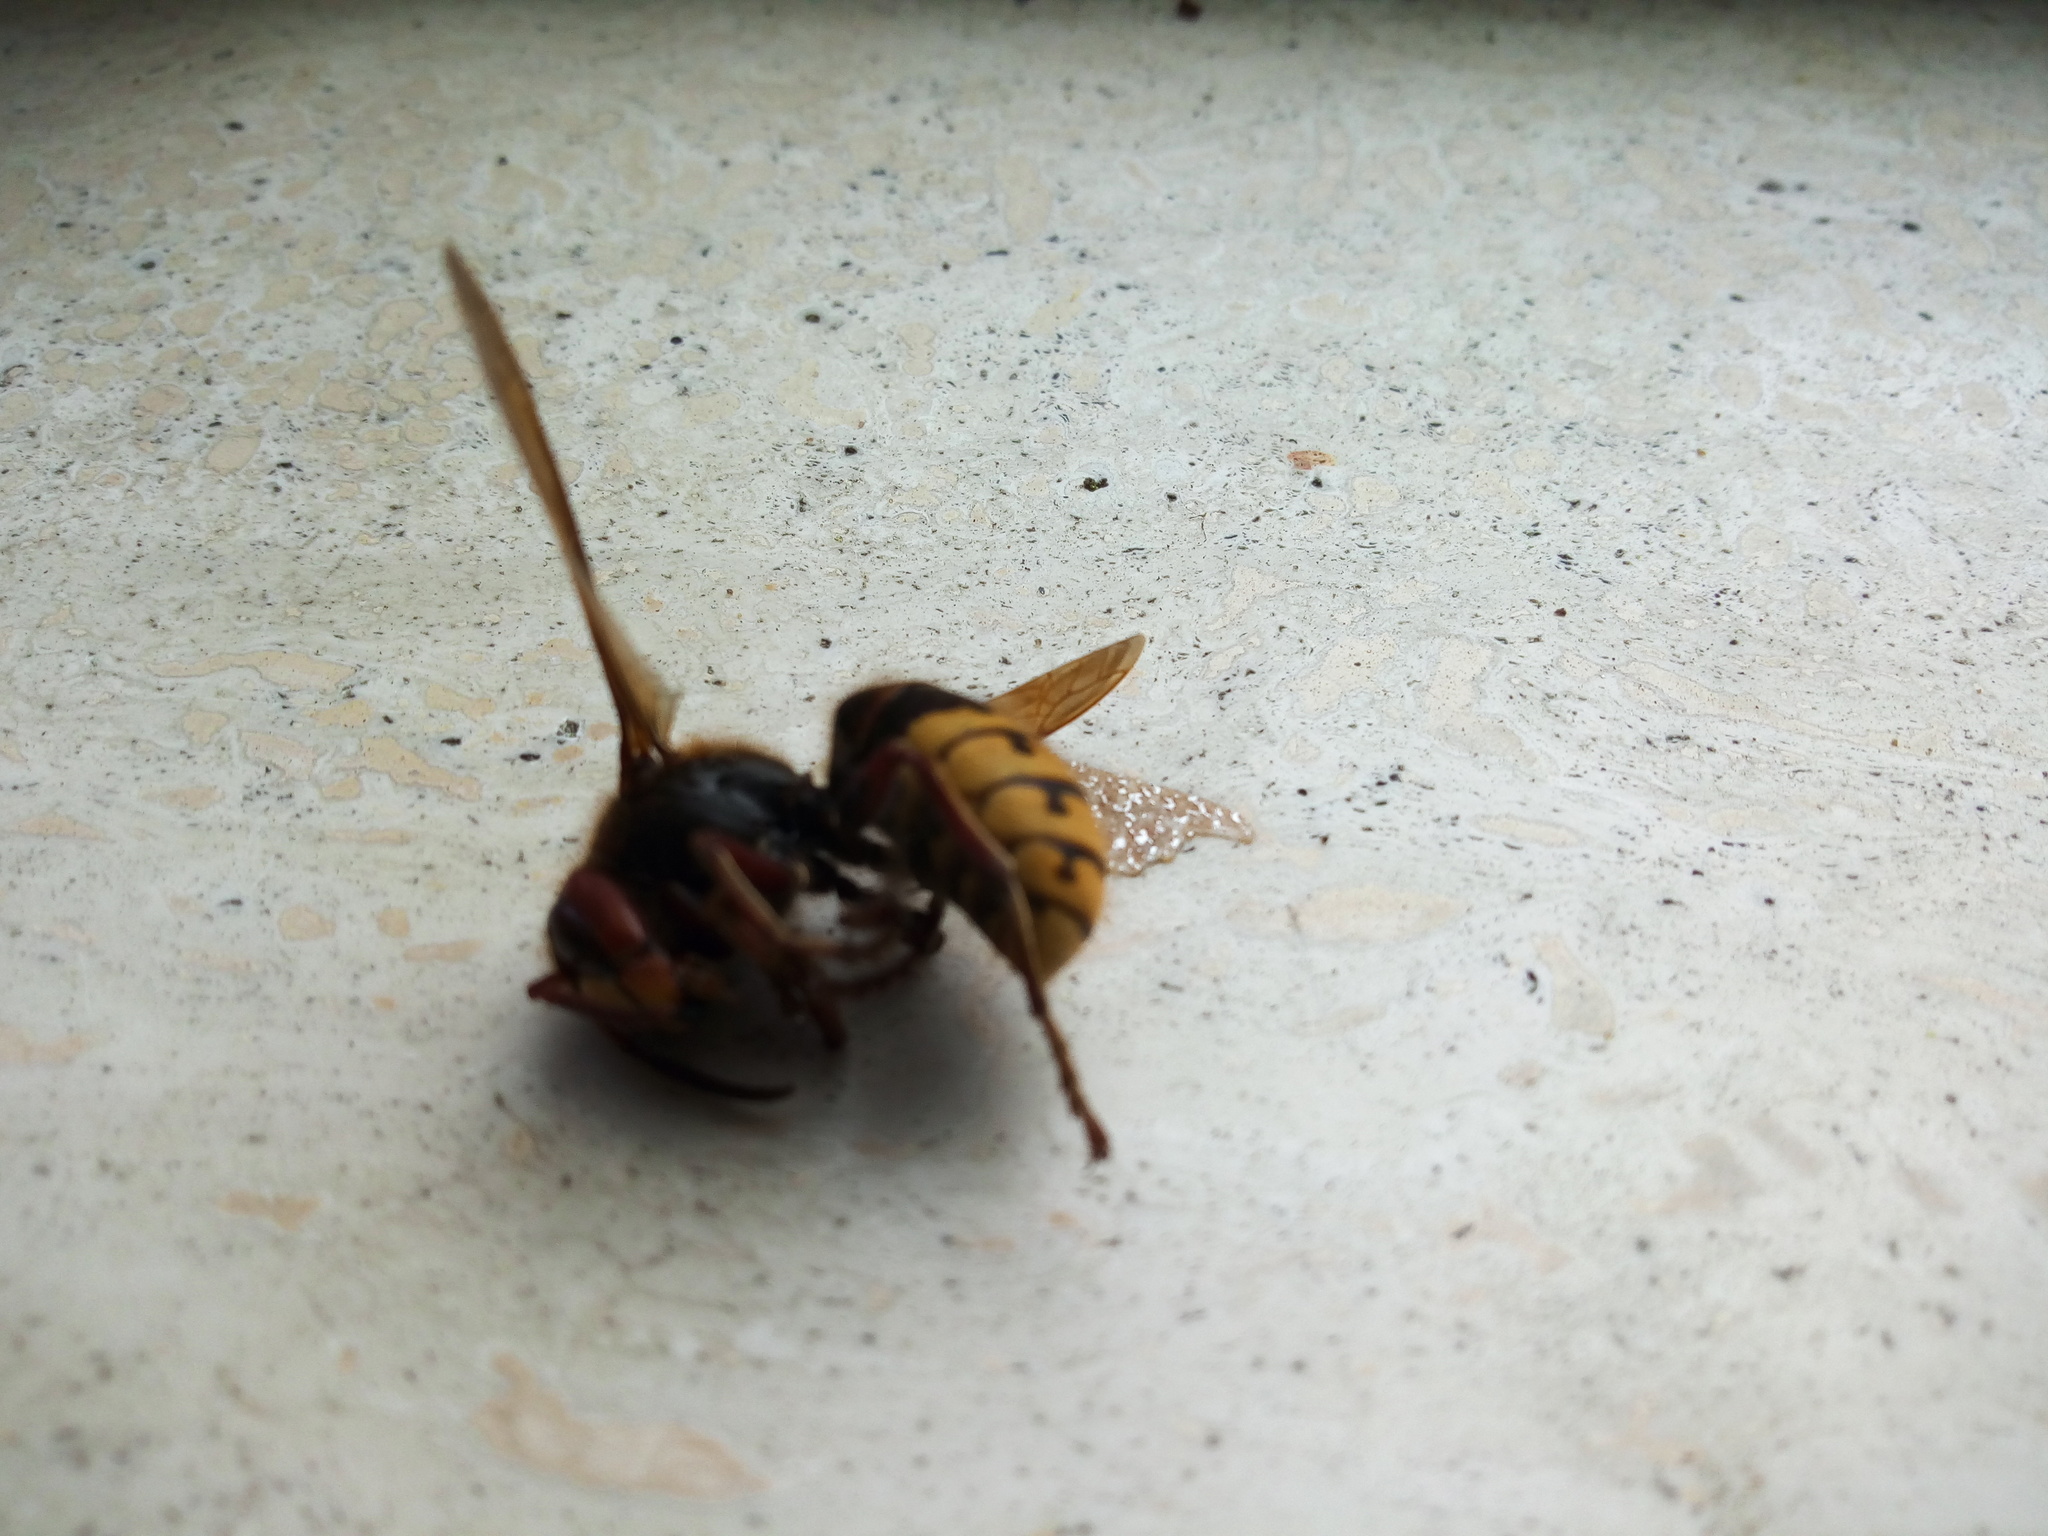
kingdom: Animalia
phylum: Arthropoda
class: Insecta
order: Hymenoptera
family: Vespidae
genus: Vespa
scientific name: Vespa crabro
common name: Hornet
